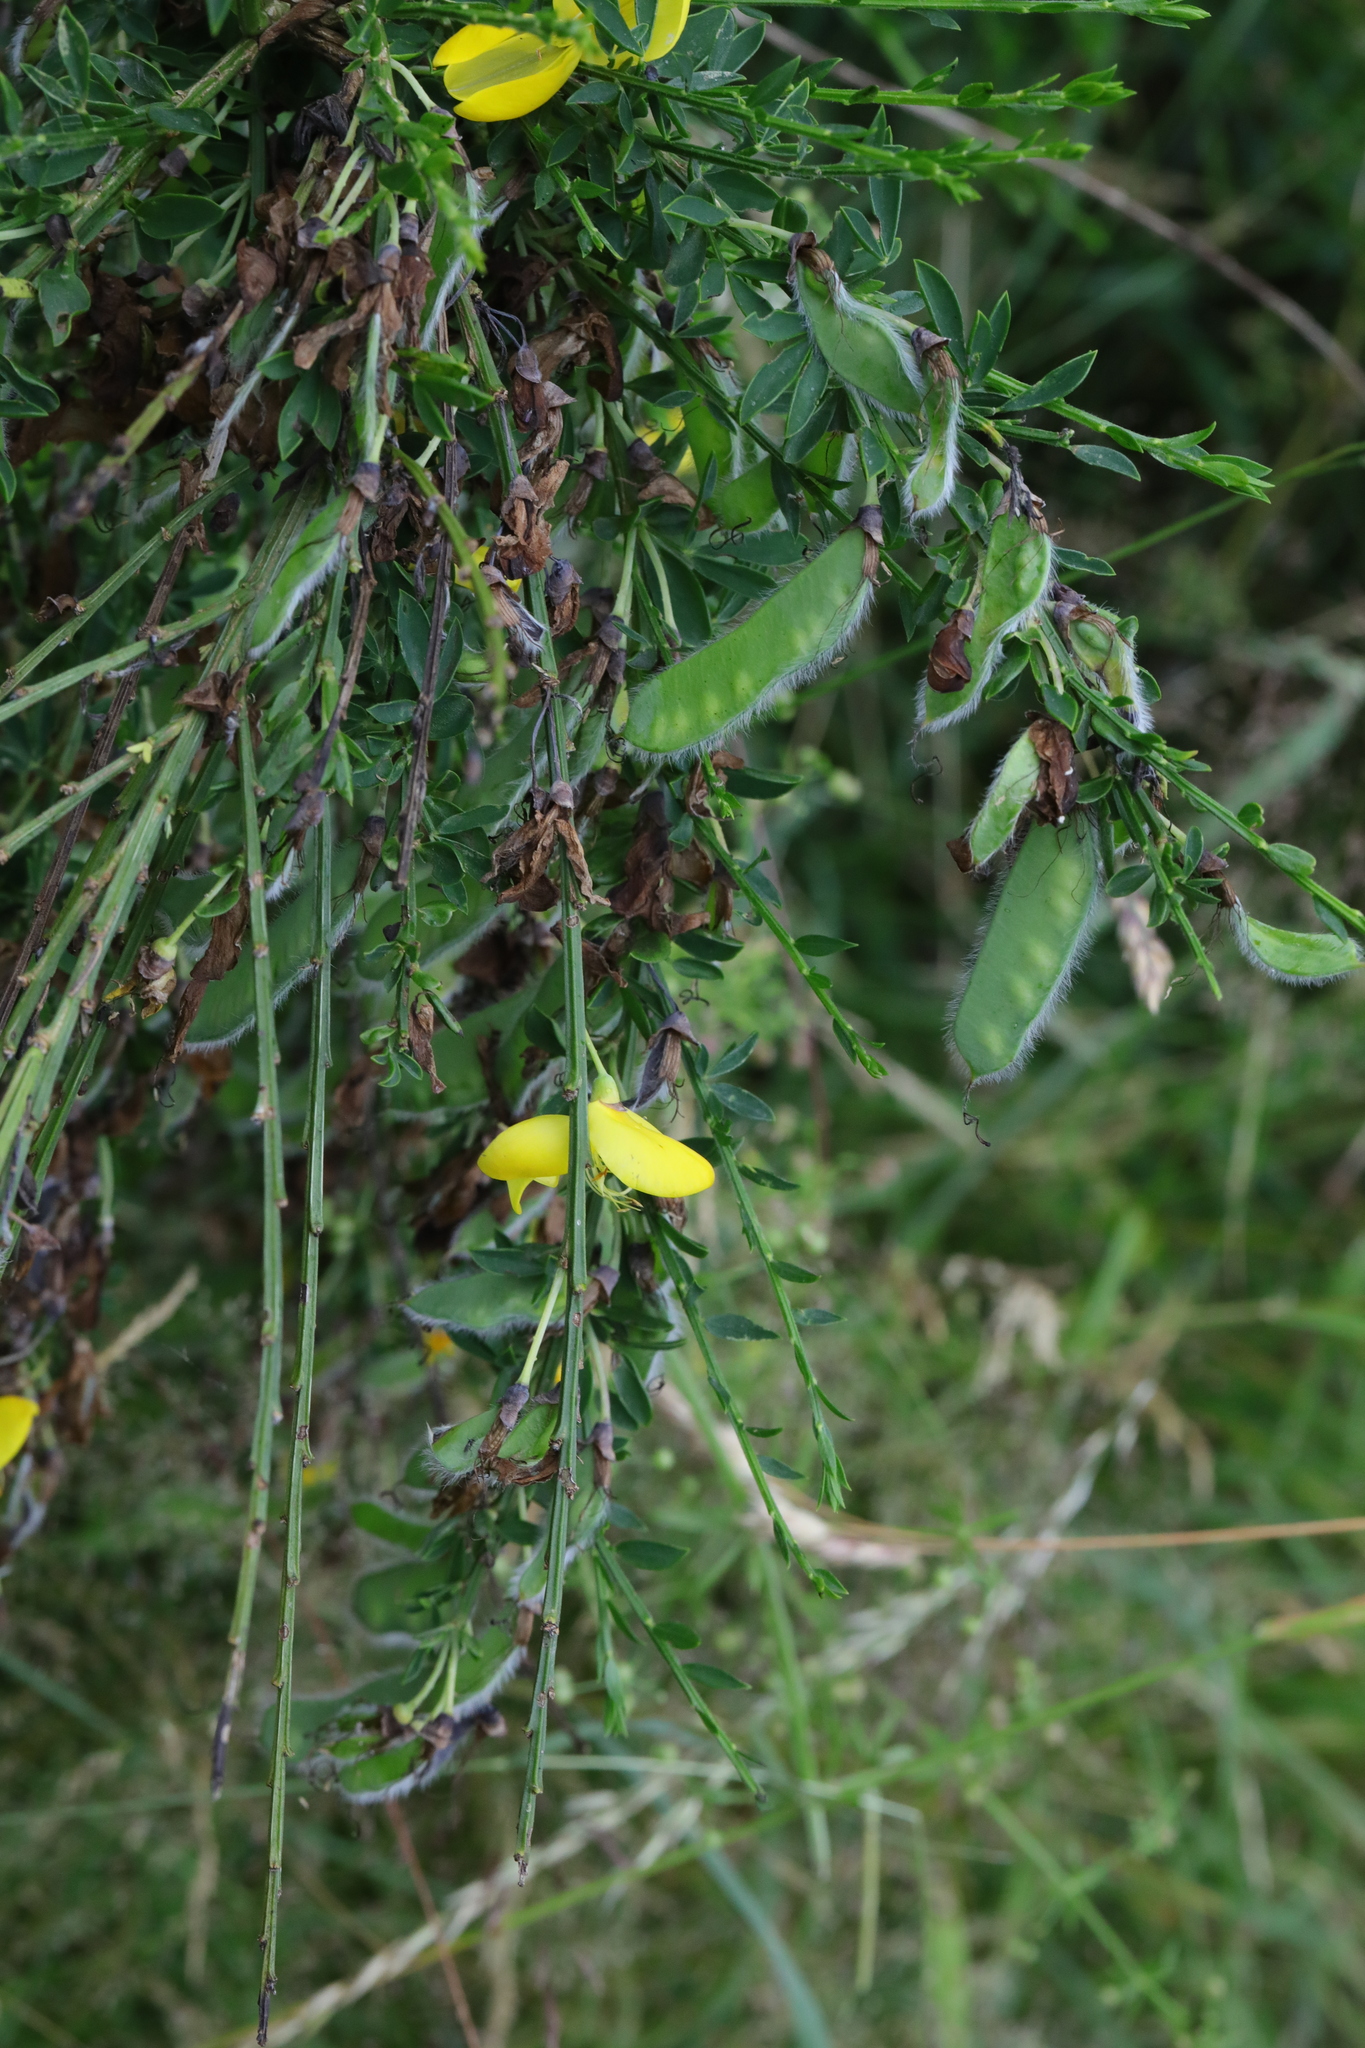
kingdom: Plantae
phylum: Tracheophyta
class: Magnoliopsida
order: Fabales
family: Fabaceae
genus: Cytisus
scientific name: Cytisus scoparius
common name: Scotch broom
